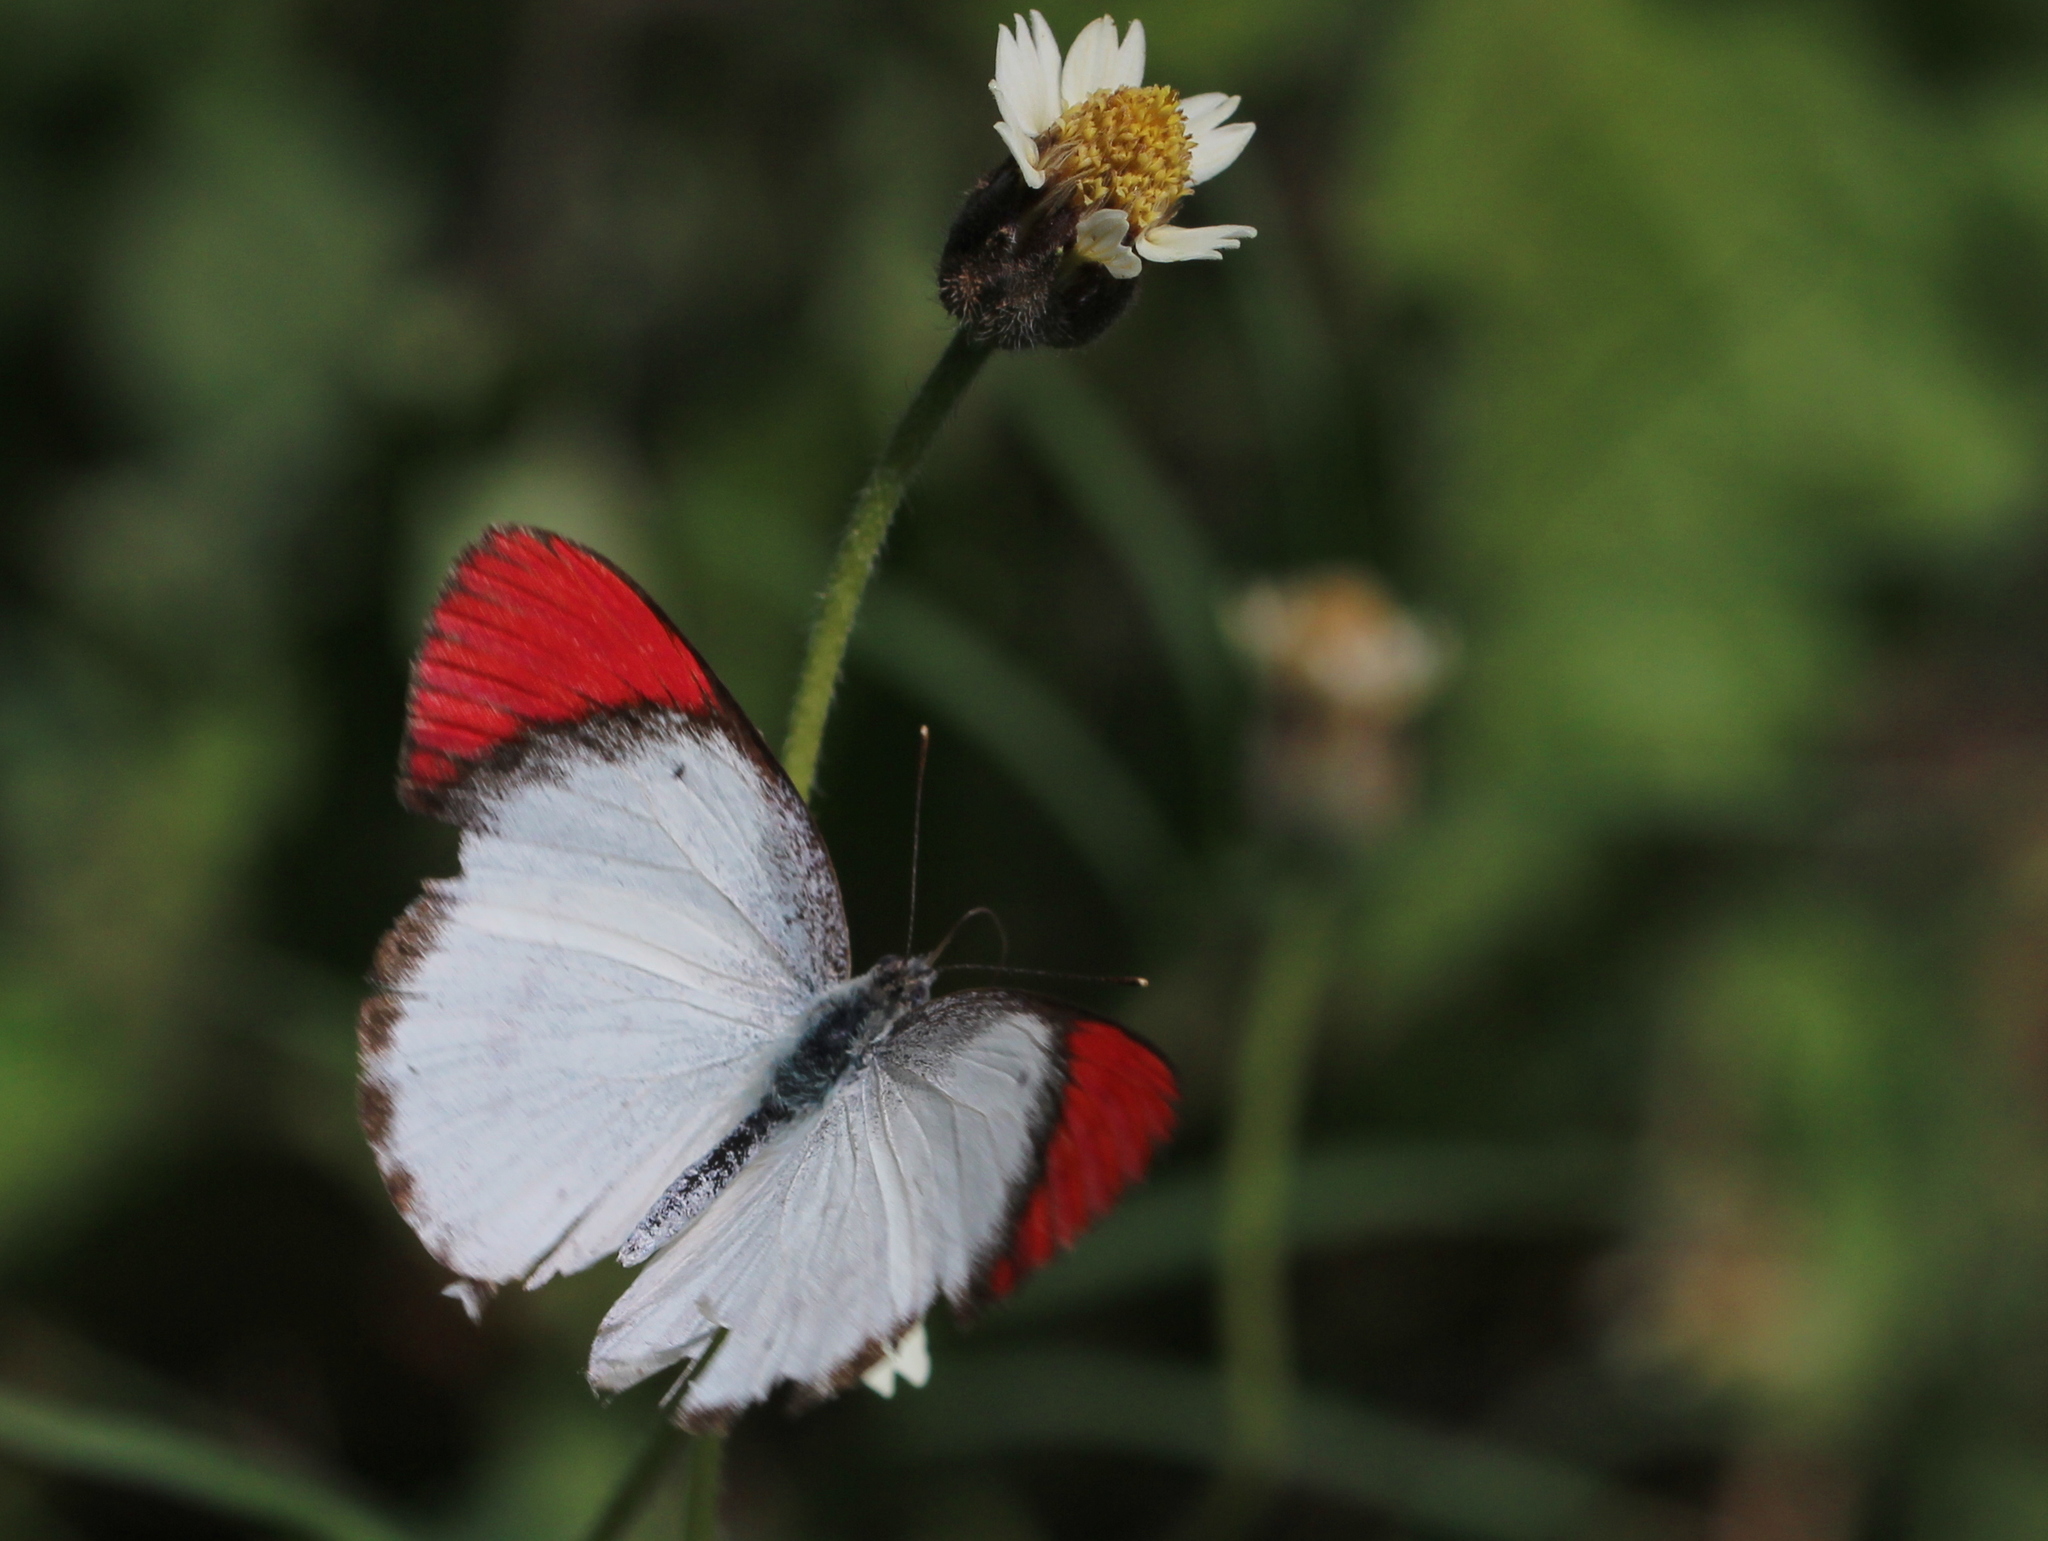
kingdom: Animalia
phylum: Arthropoda
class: Insecta
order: Lepidoptera
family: Pieridae
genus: Colotis
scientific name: Colotis danae
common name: Crimson tip
